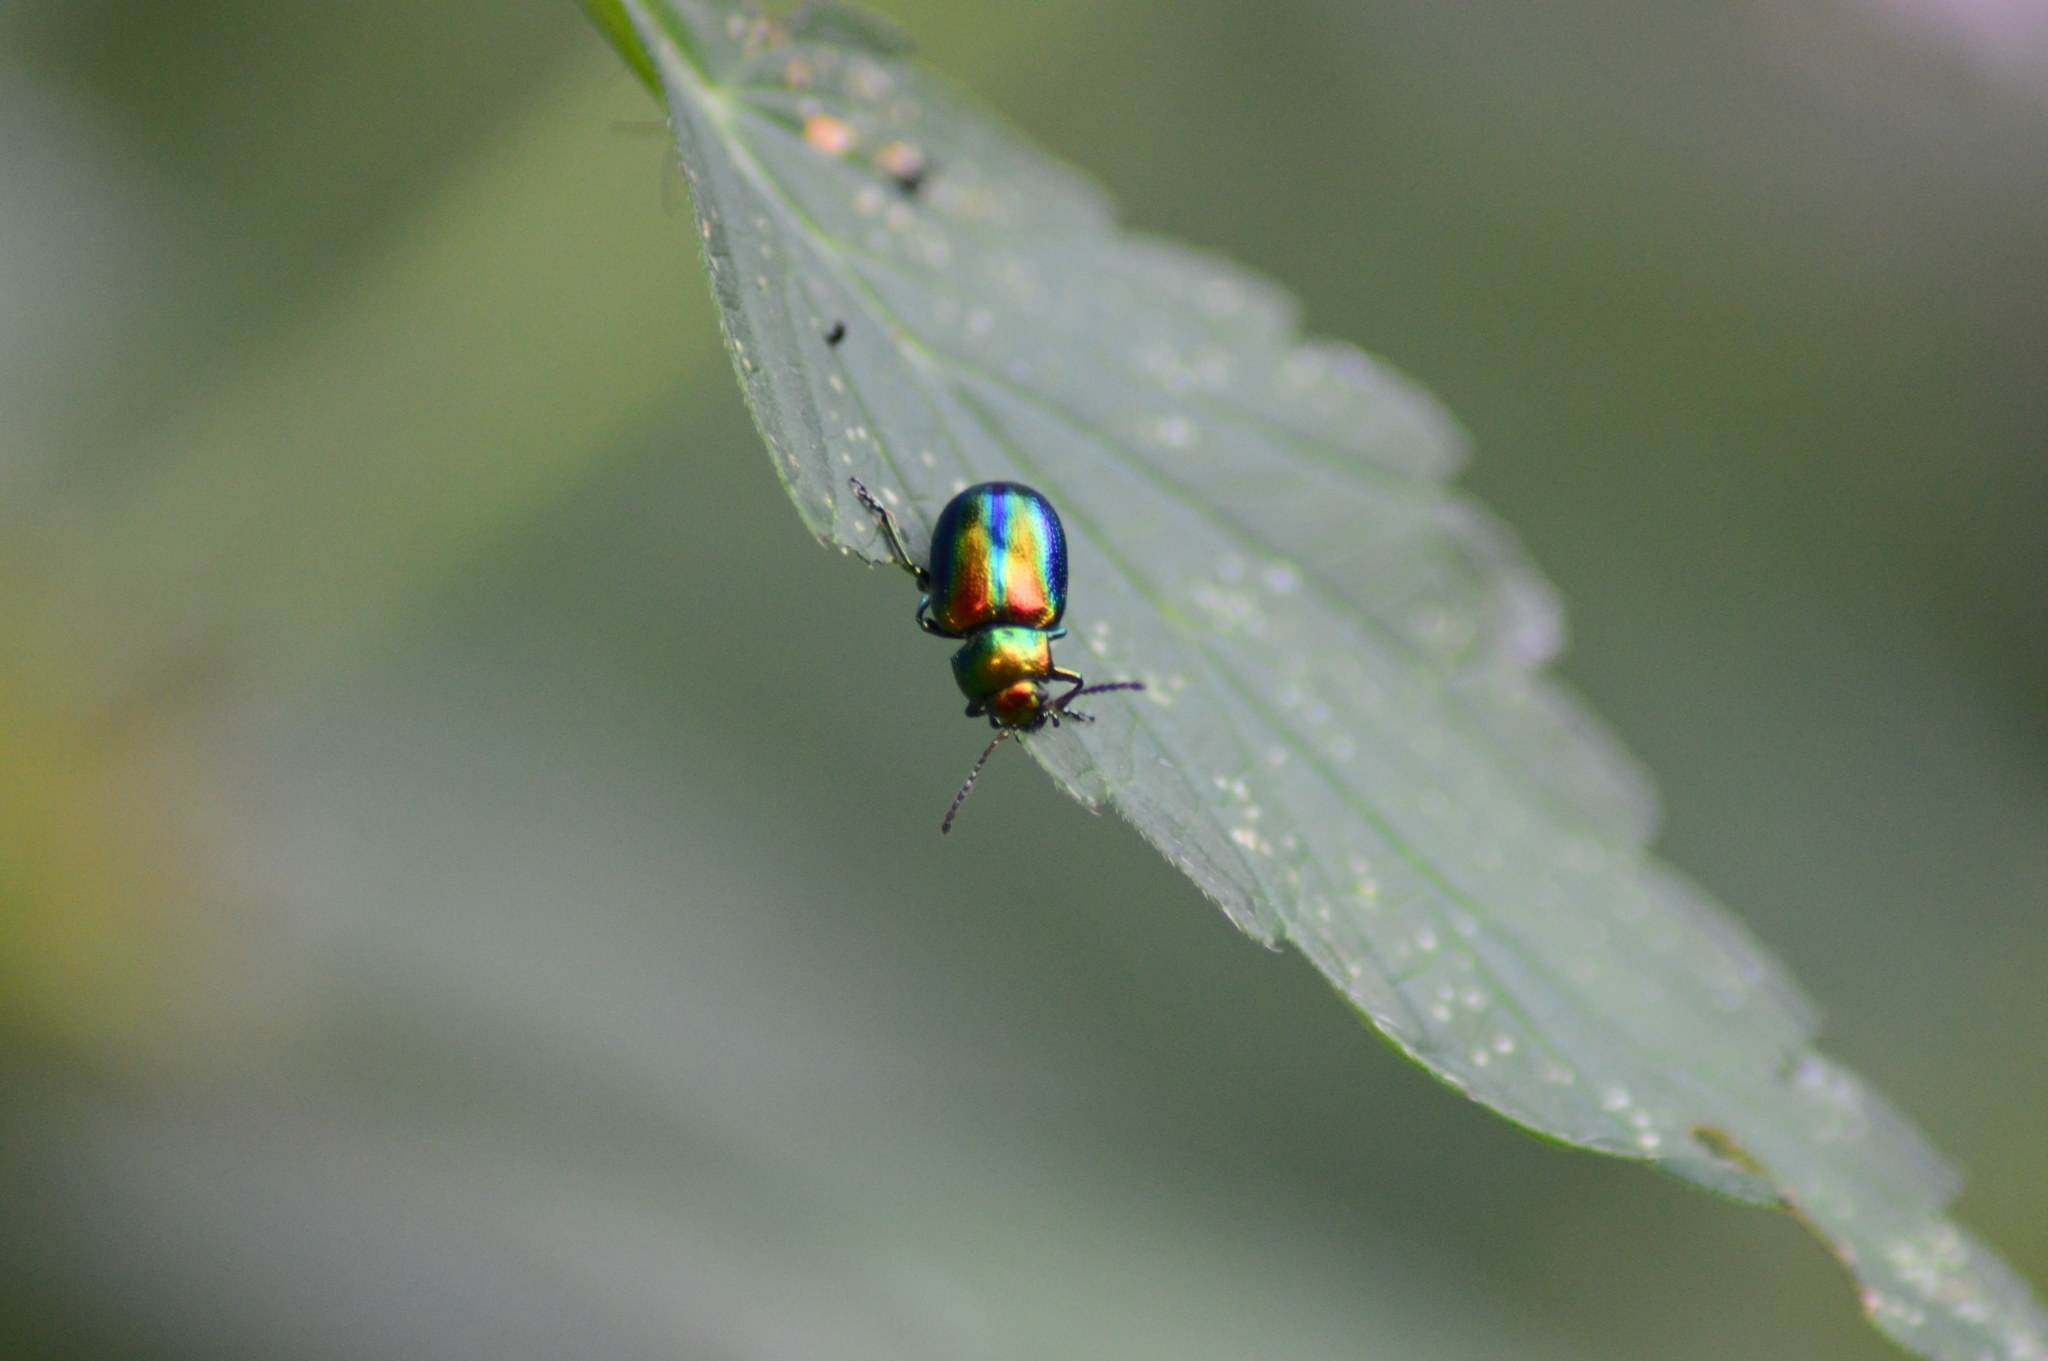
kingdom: Animalia
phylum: Arthropoda
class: Insecta
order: Coleoptera
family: Chrysomelidae
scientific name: Chrysomelidae
